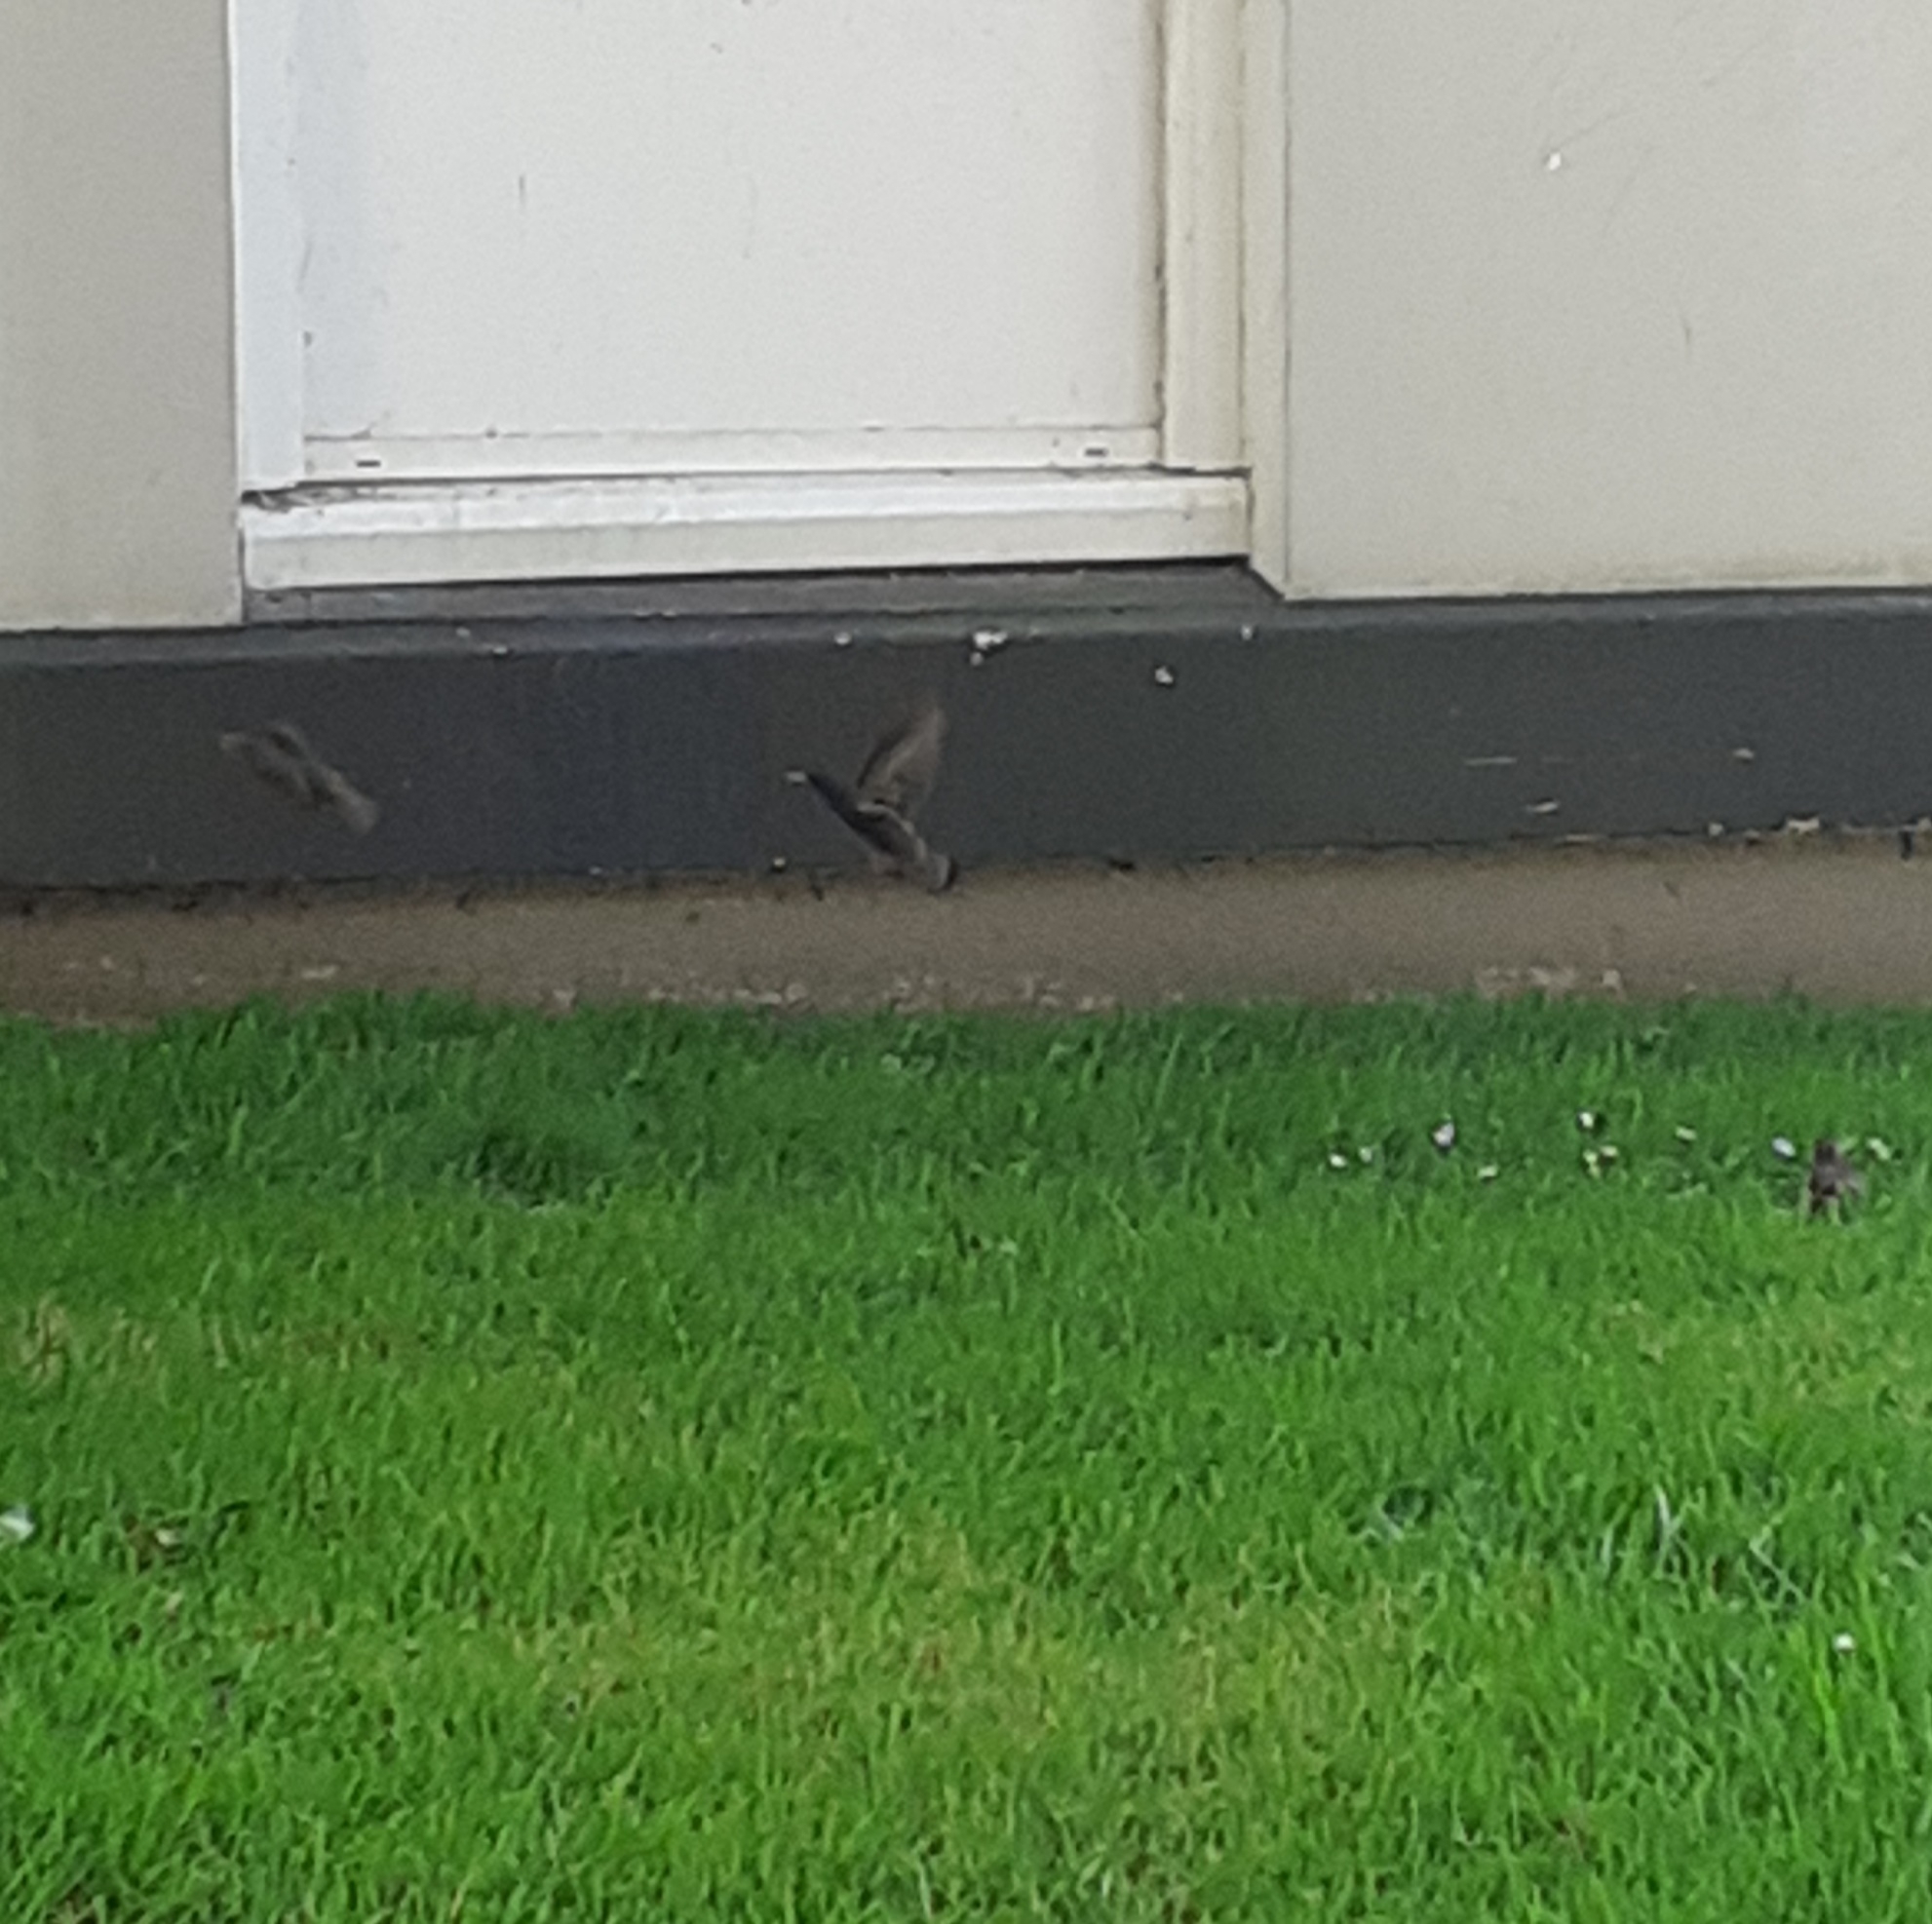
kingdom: Animalia
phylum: Chordata
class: Aves
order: Passeriformes
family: Sturnidae
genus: Sturnus
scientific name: Sturnus vulgaris
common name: Common starling
